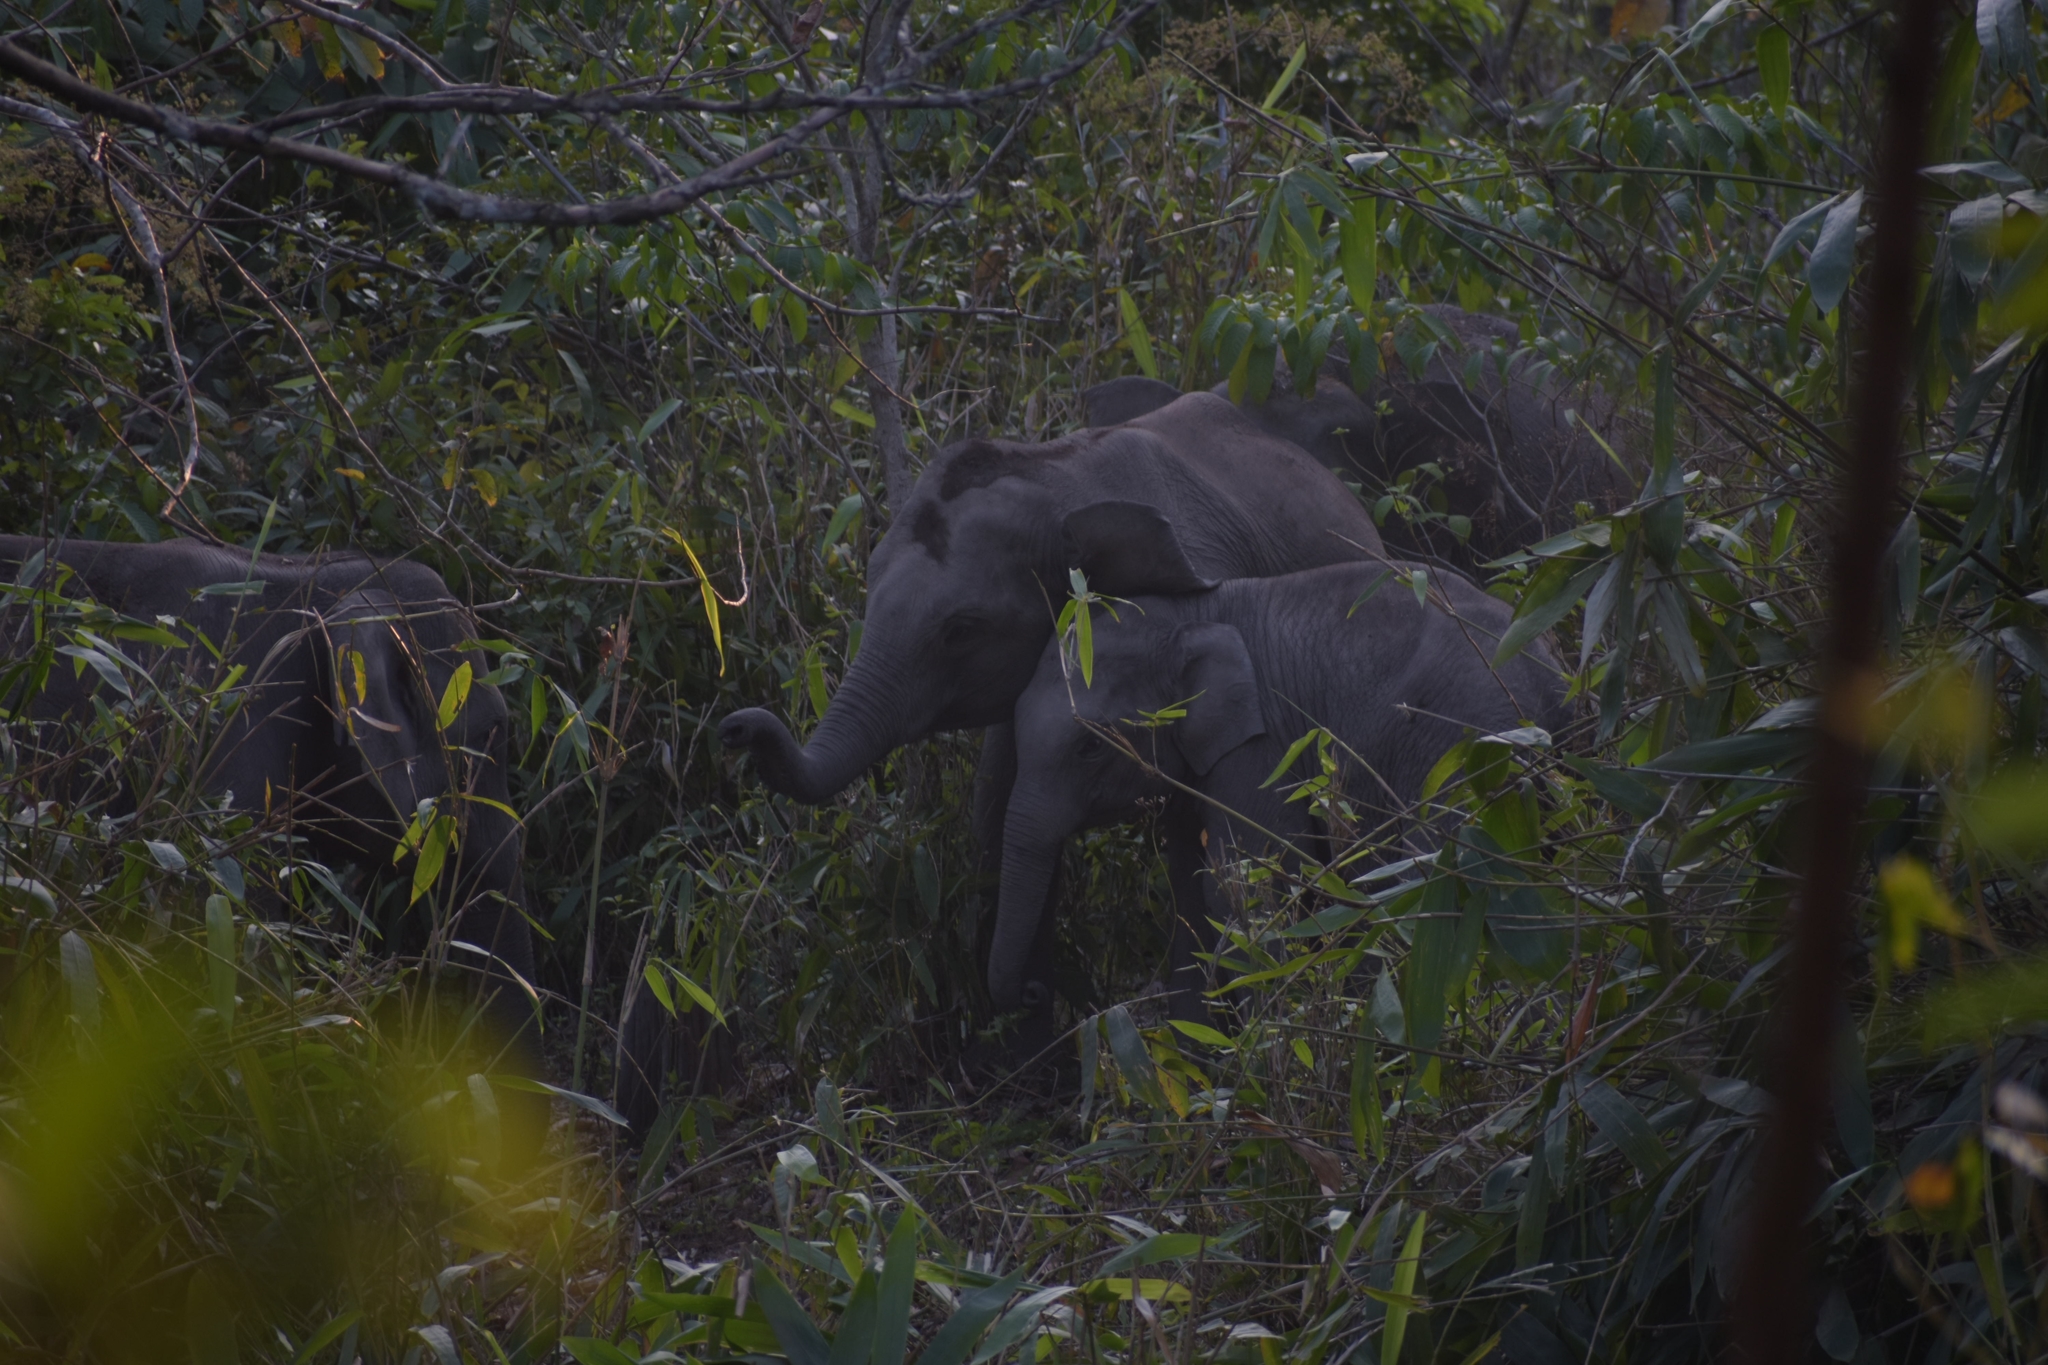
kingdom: Animalia
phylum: Chordata
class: Mammalia
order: Proboscidea
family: Elephantidae
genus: Elephas
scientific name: Elephas maximus
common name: Asian elephant
